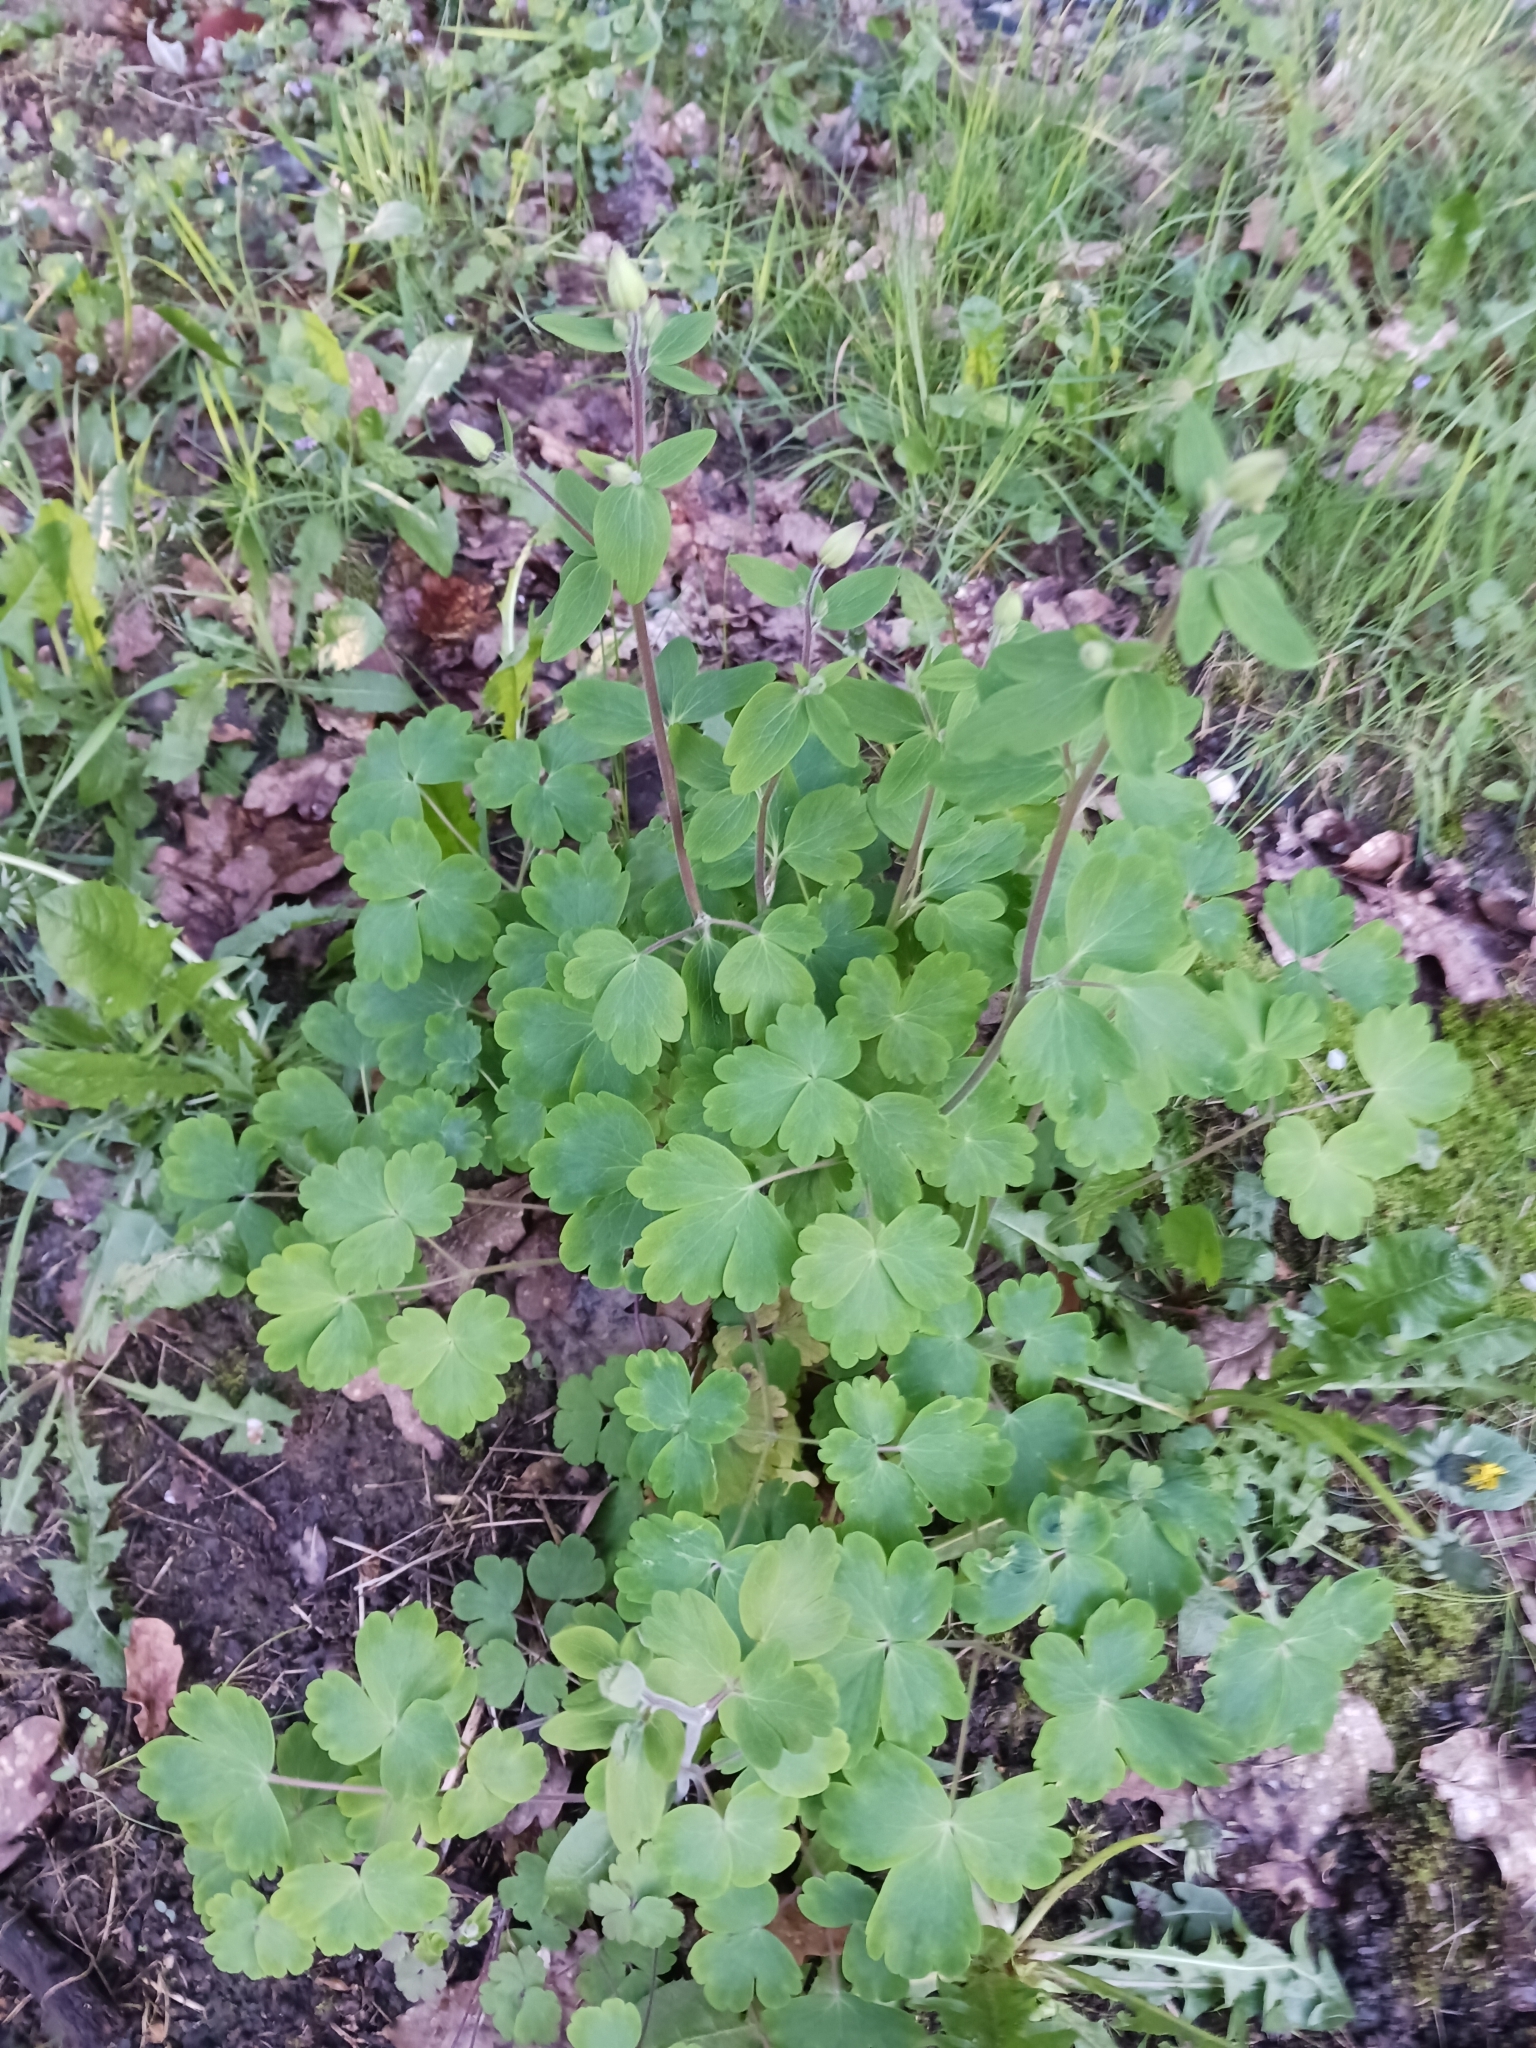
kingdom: Plantae
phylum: Tracheophyta
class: Magnoliopsida
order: Ranunculales
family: Ranunculaceae
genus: Aquilegia
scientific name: Aquilegia vulgaris
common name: Columbine
